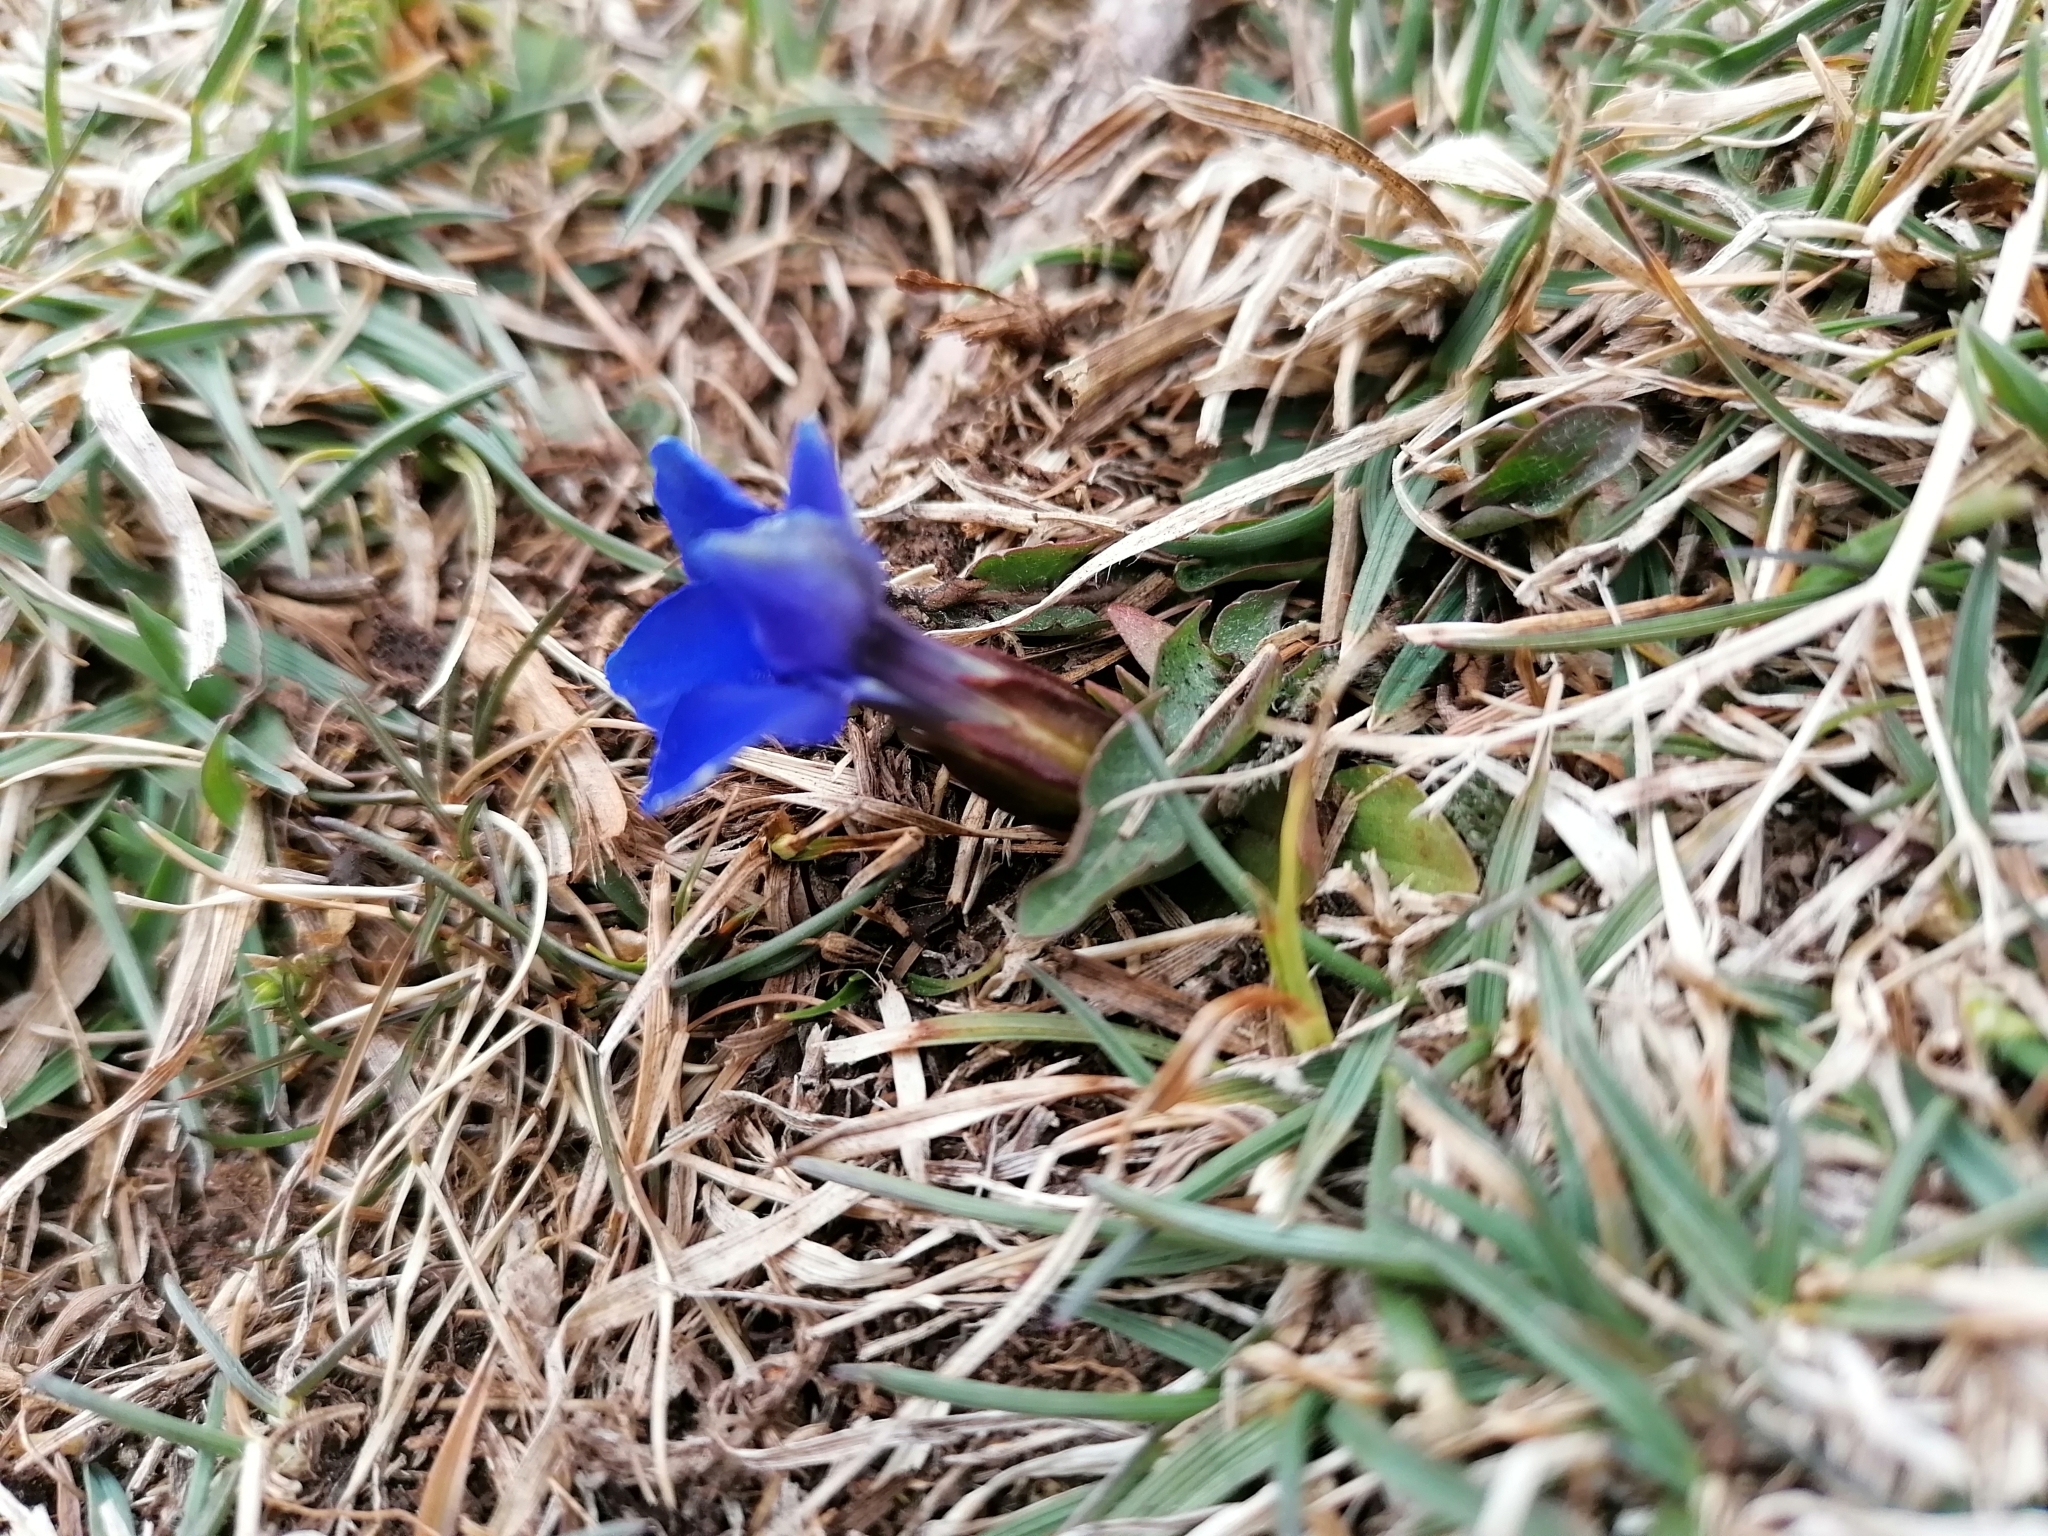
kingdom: Plantae
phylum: Tracheophyta
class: Magnoliopsida
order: Gentianales
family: Gentianaceae
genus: Gentiana
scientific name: Gentiana verna
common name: Spring gentian
